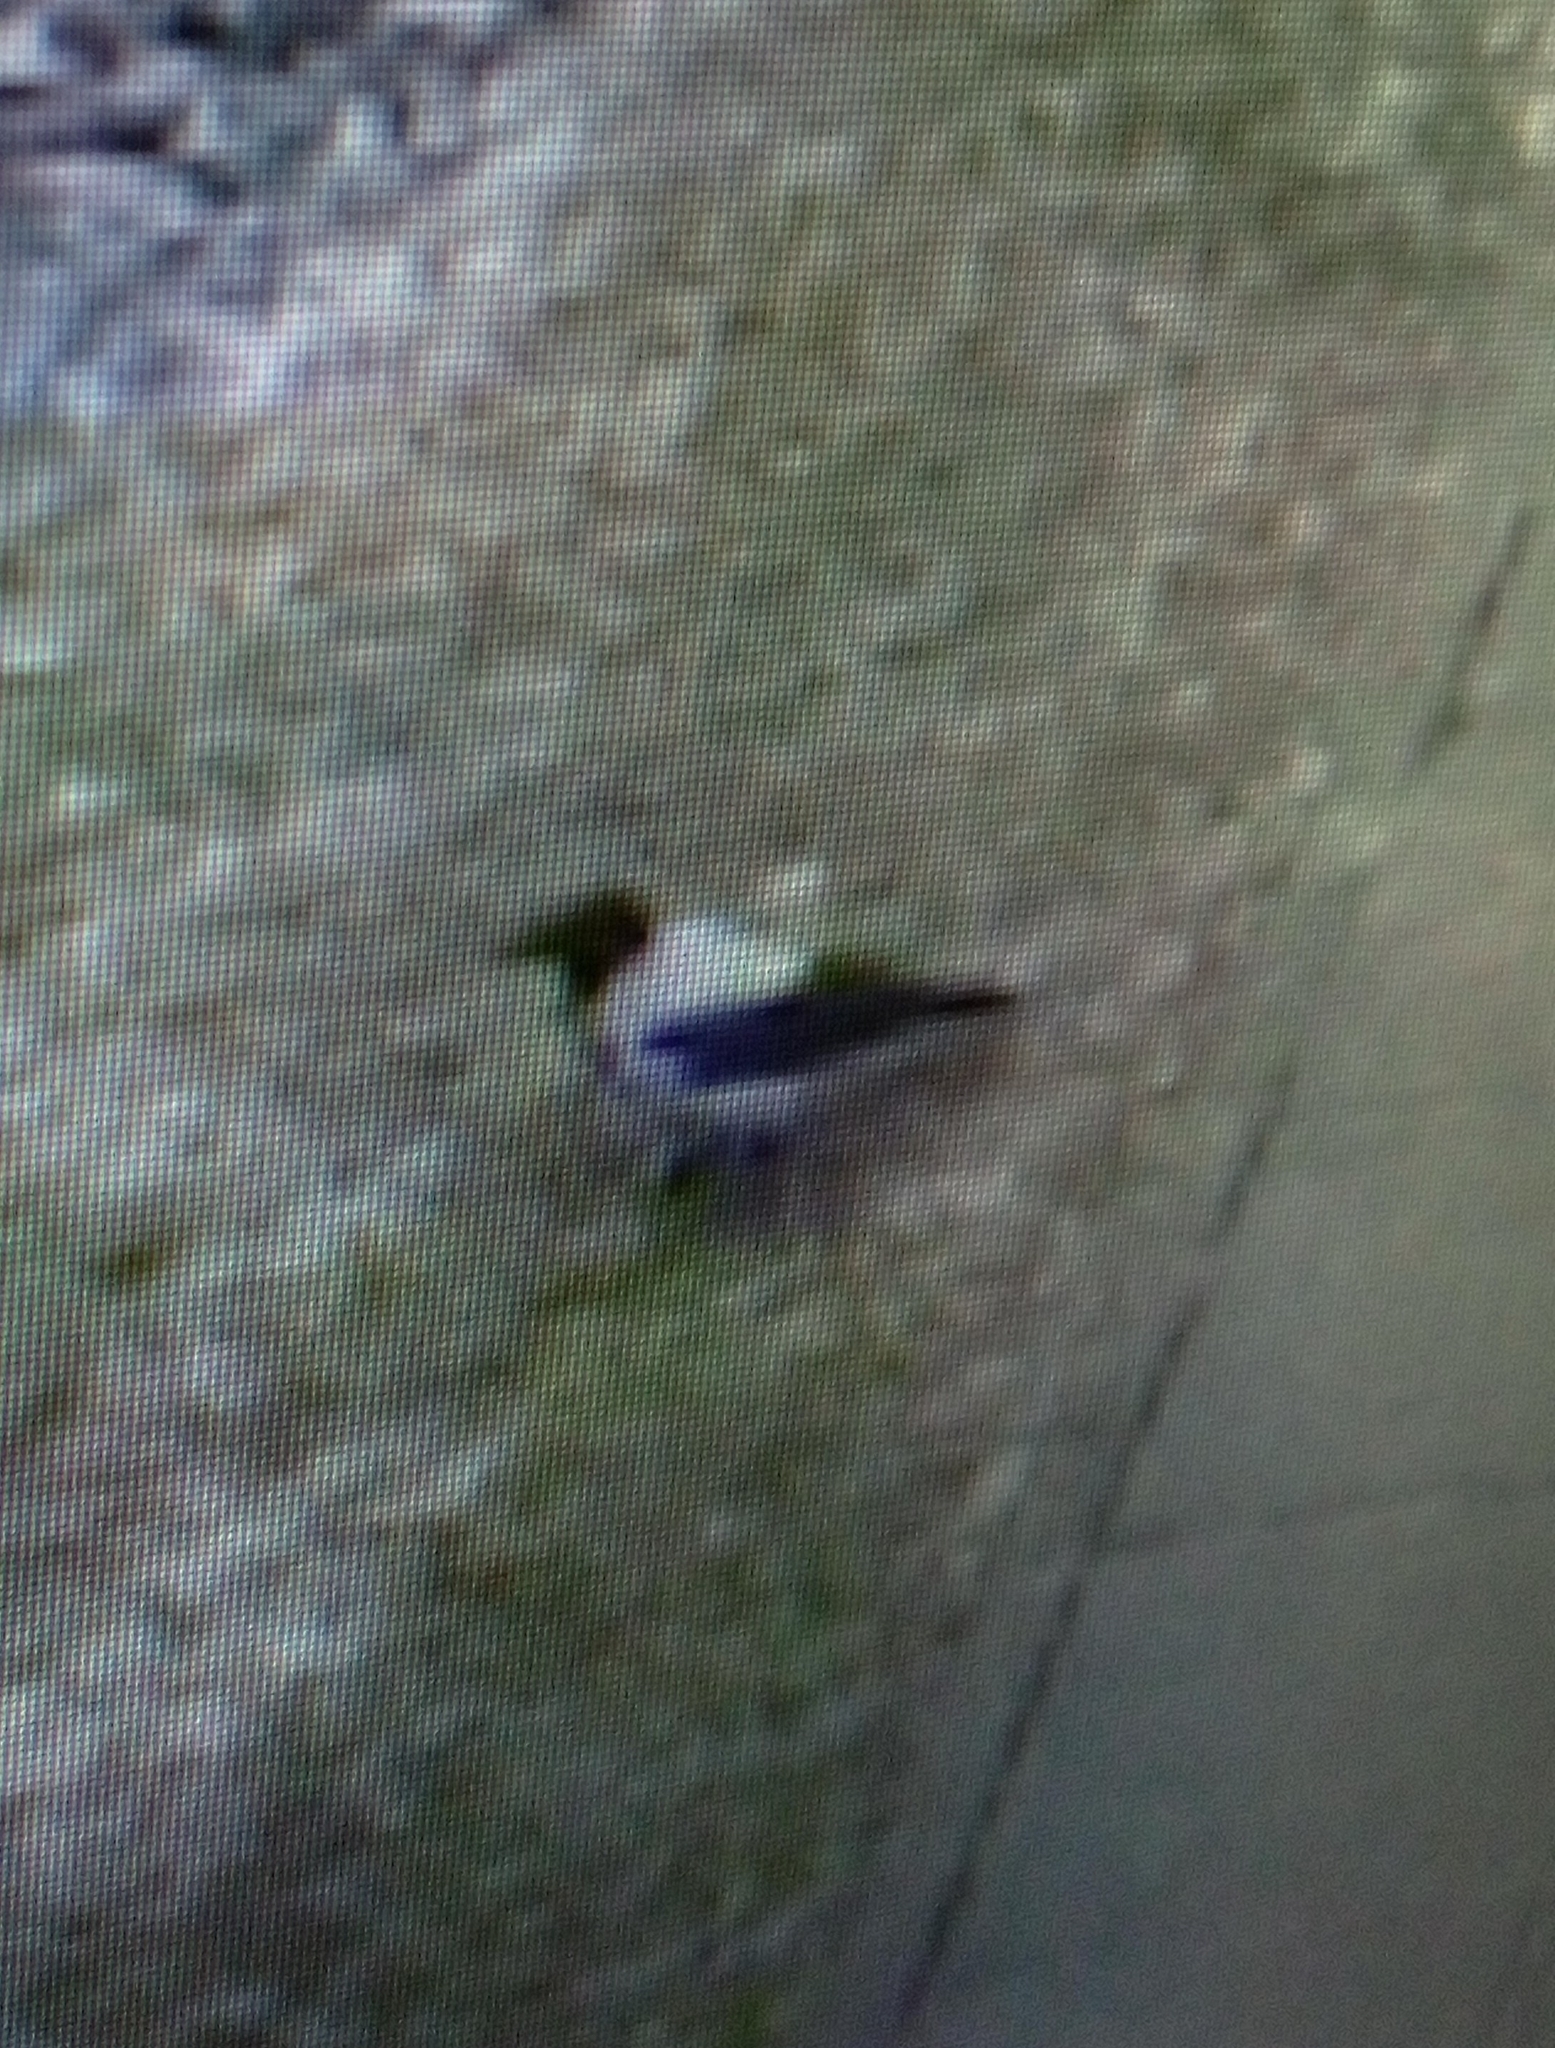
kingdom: Animalia
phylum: Chordata
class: Aves
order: Passeriformes
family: Corvidae
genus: Corvus
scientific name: Corvus cornix
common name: Hooded crow
